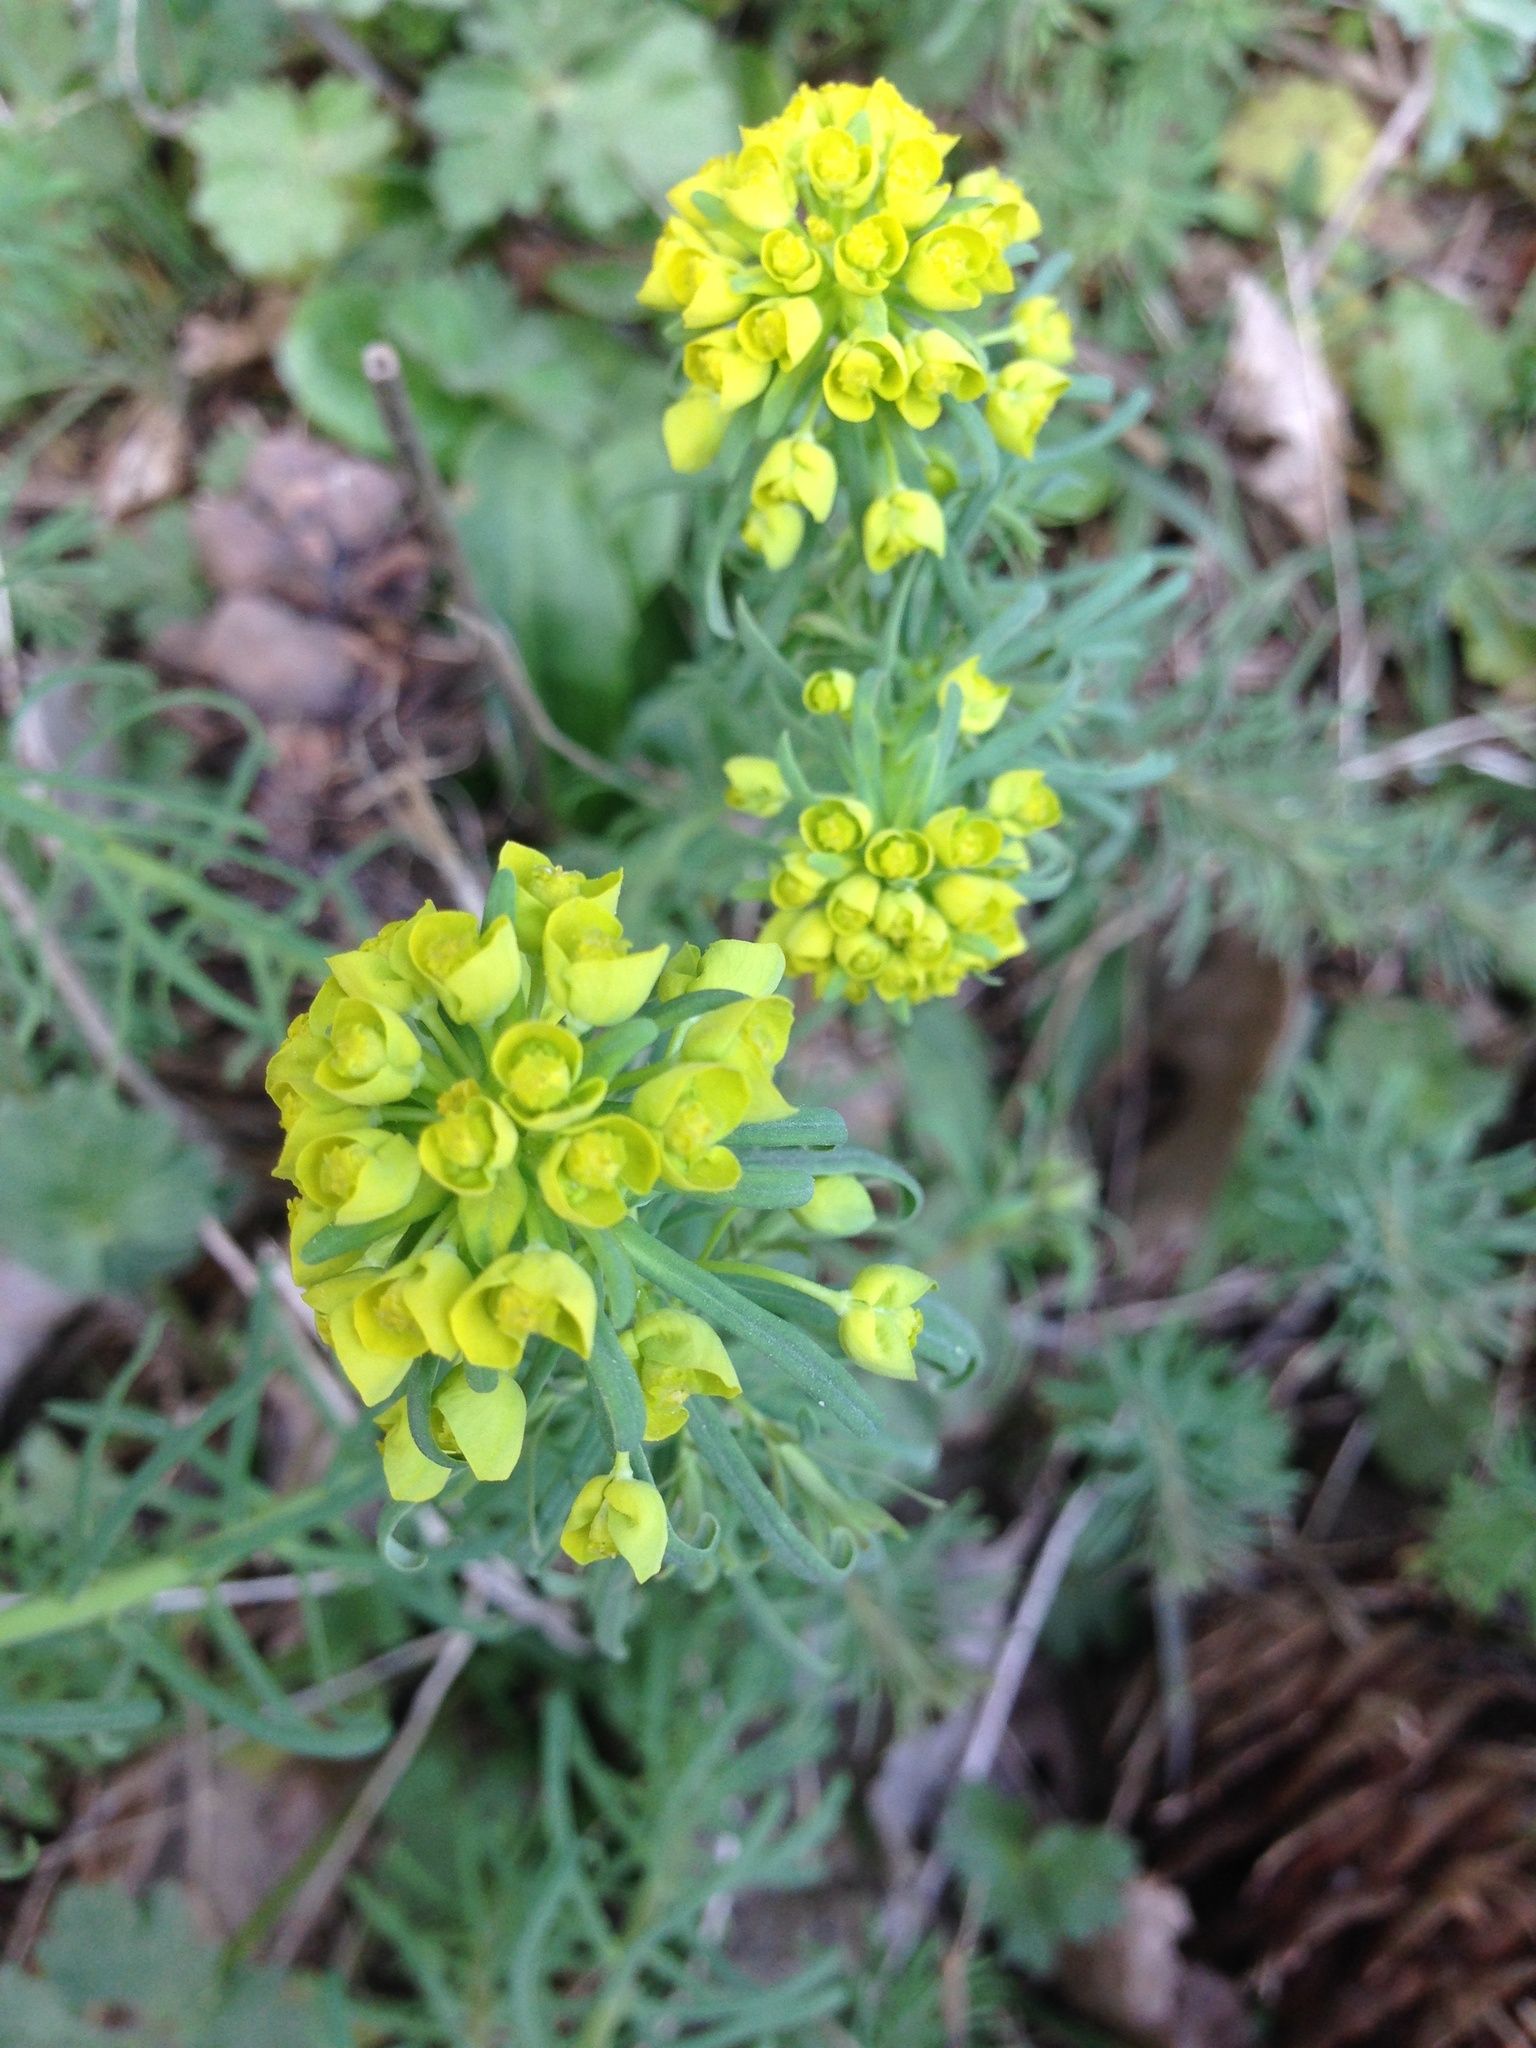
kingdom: Plantae
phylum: Tracheophyta
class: Magnoliopsida
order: Malpighiales
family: Euphorbiaceae
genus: Euphorbia
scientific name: Euphorbia cyparissias
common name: Cypress spurge
